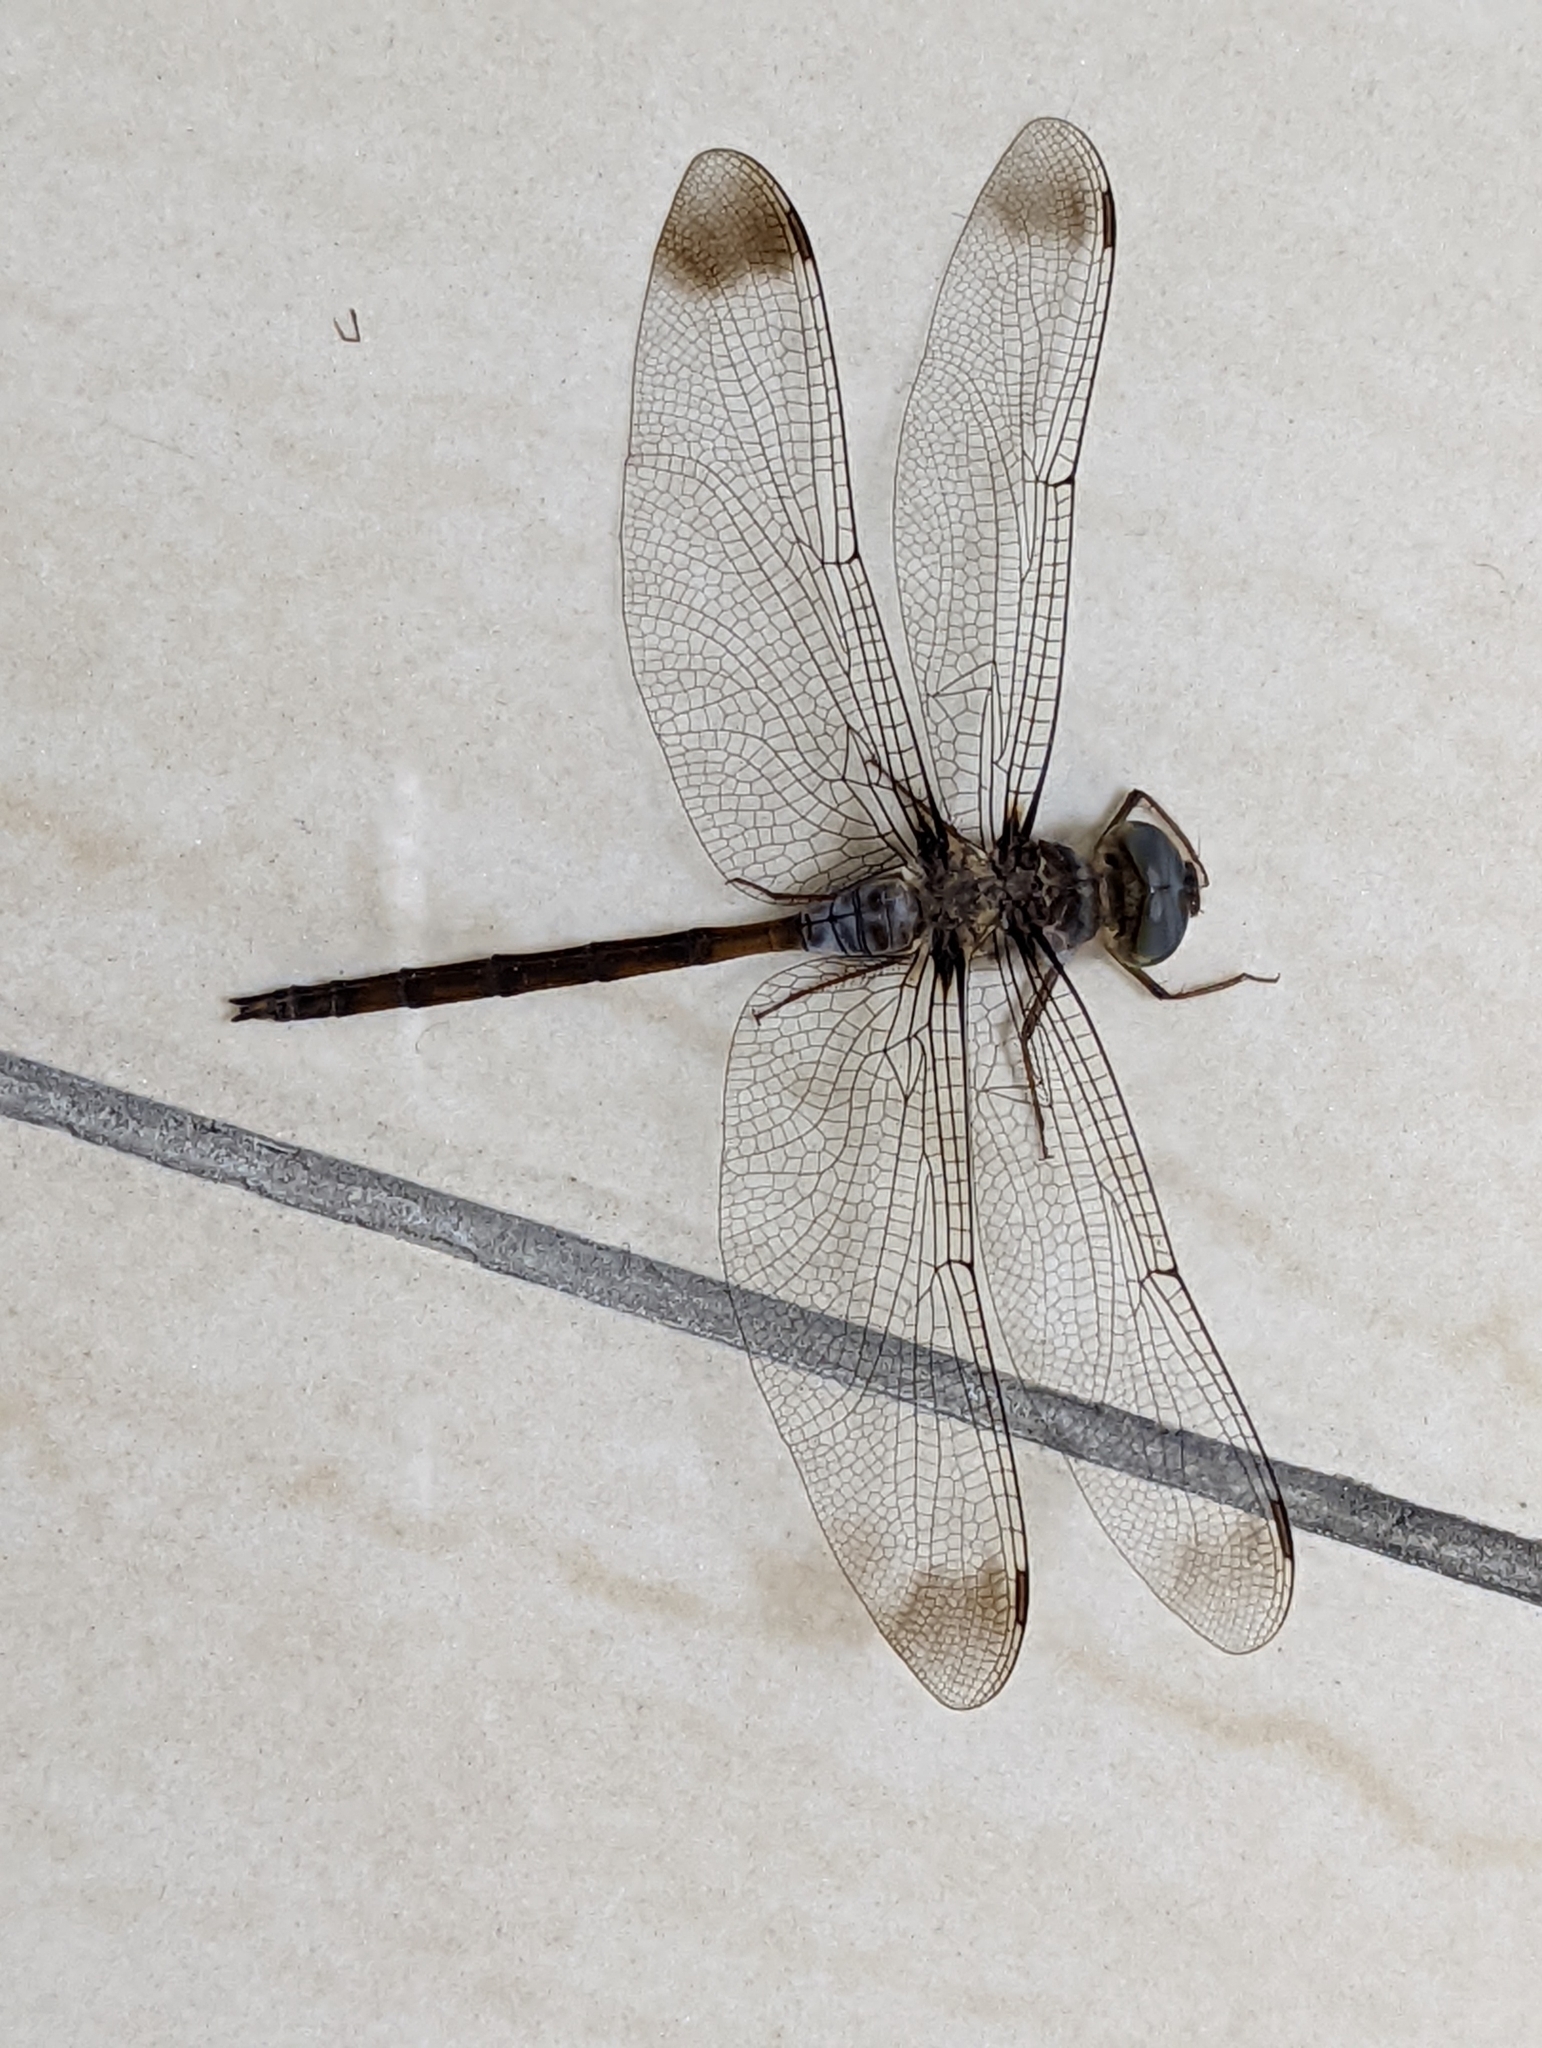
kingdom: Animalia
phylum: Arthropoda
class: Insecta
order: Odonata
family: Libellulidae
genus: Zyxomma
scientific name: Zyxomma obtusum
